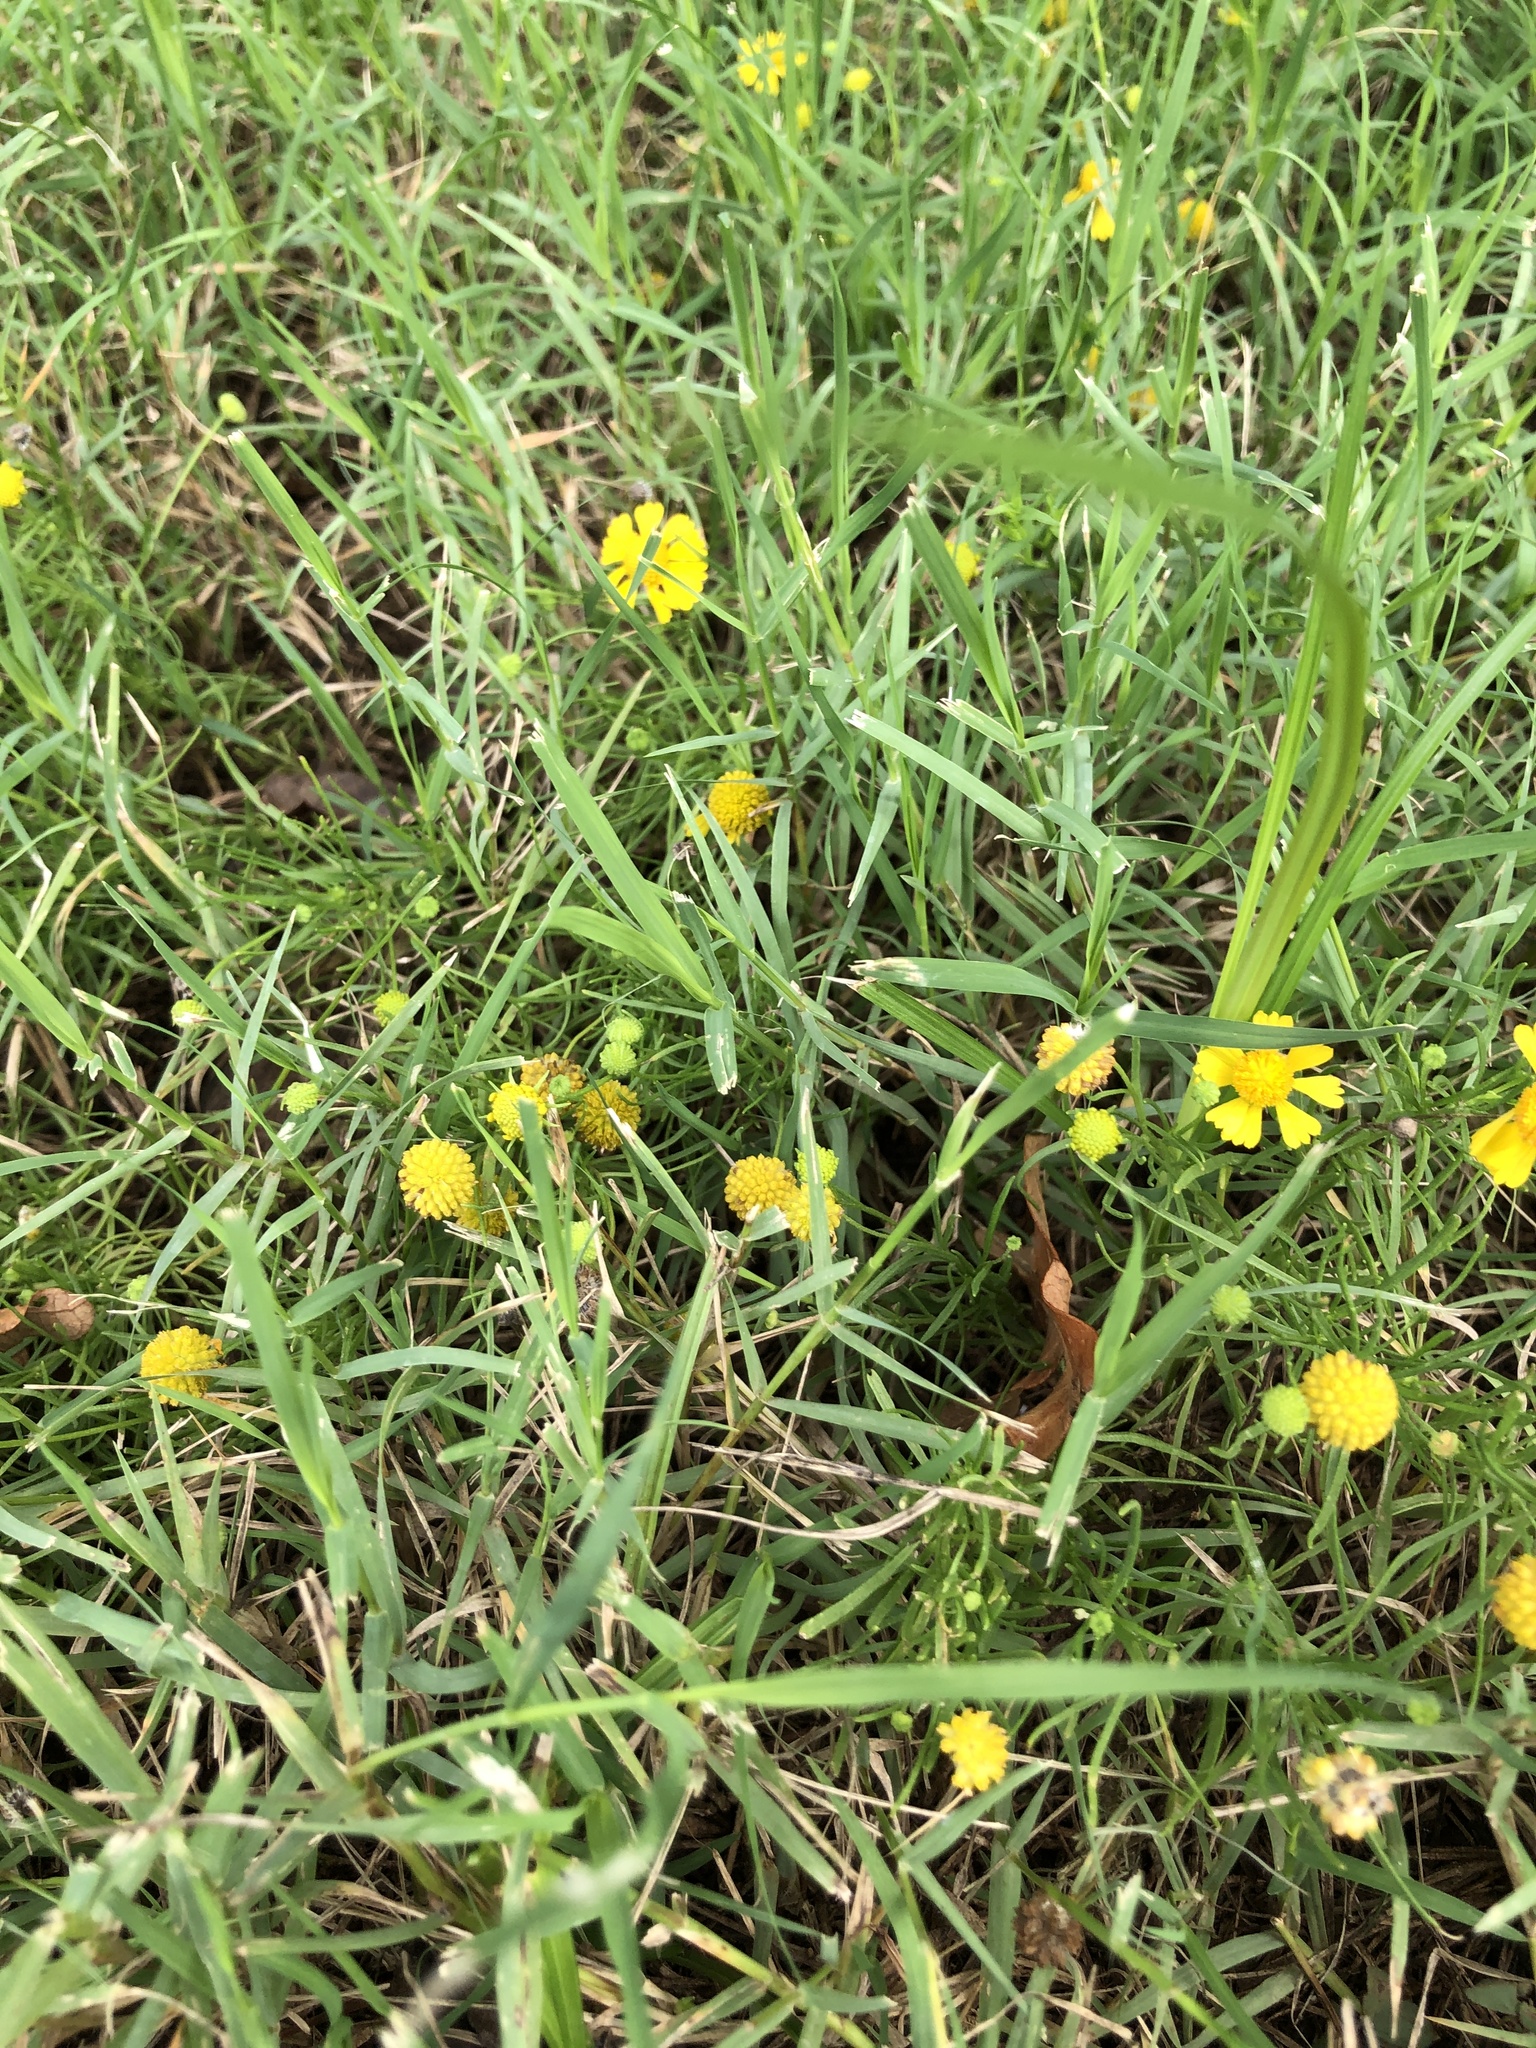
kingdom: Plantae
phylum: Tracheophyta
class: Magnoliopsida
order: Asterales
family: Asteraceae
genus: Helenium
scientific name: Helenium amarum
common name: Bitter sneezeweed
